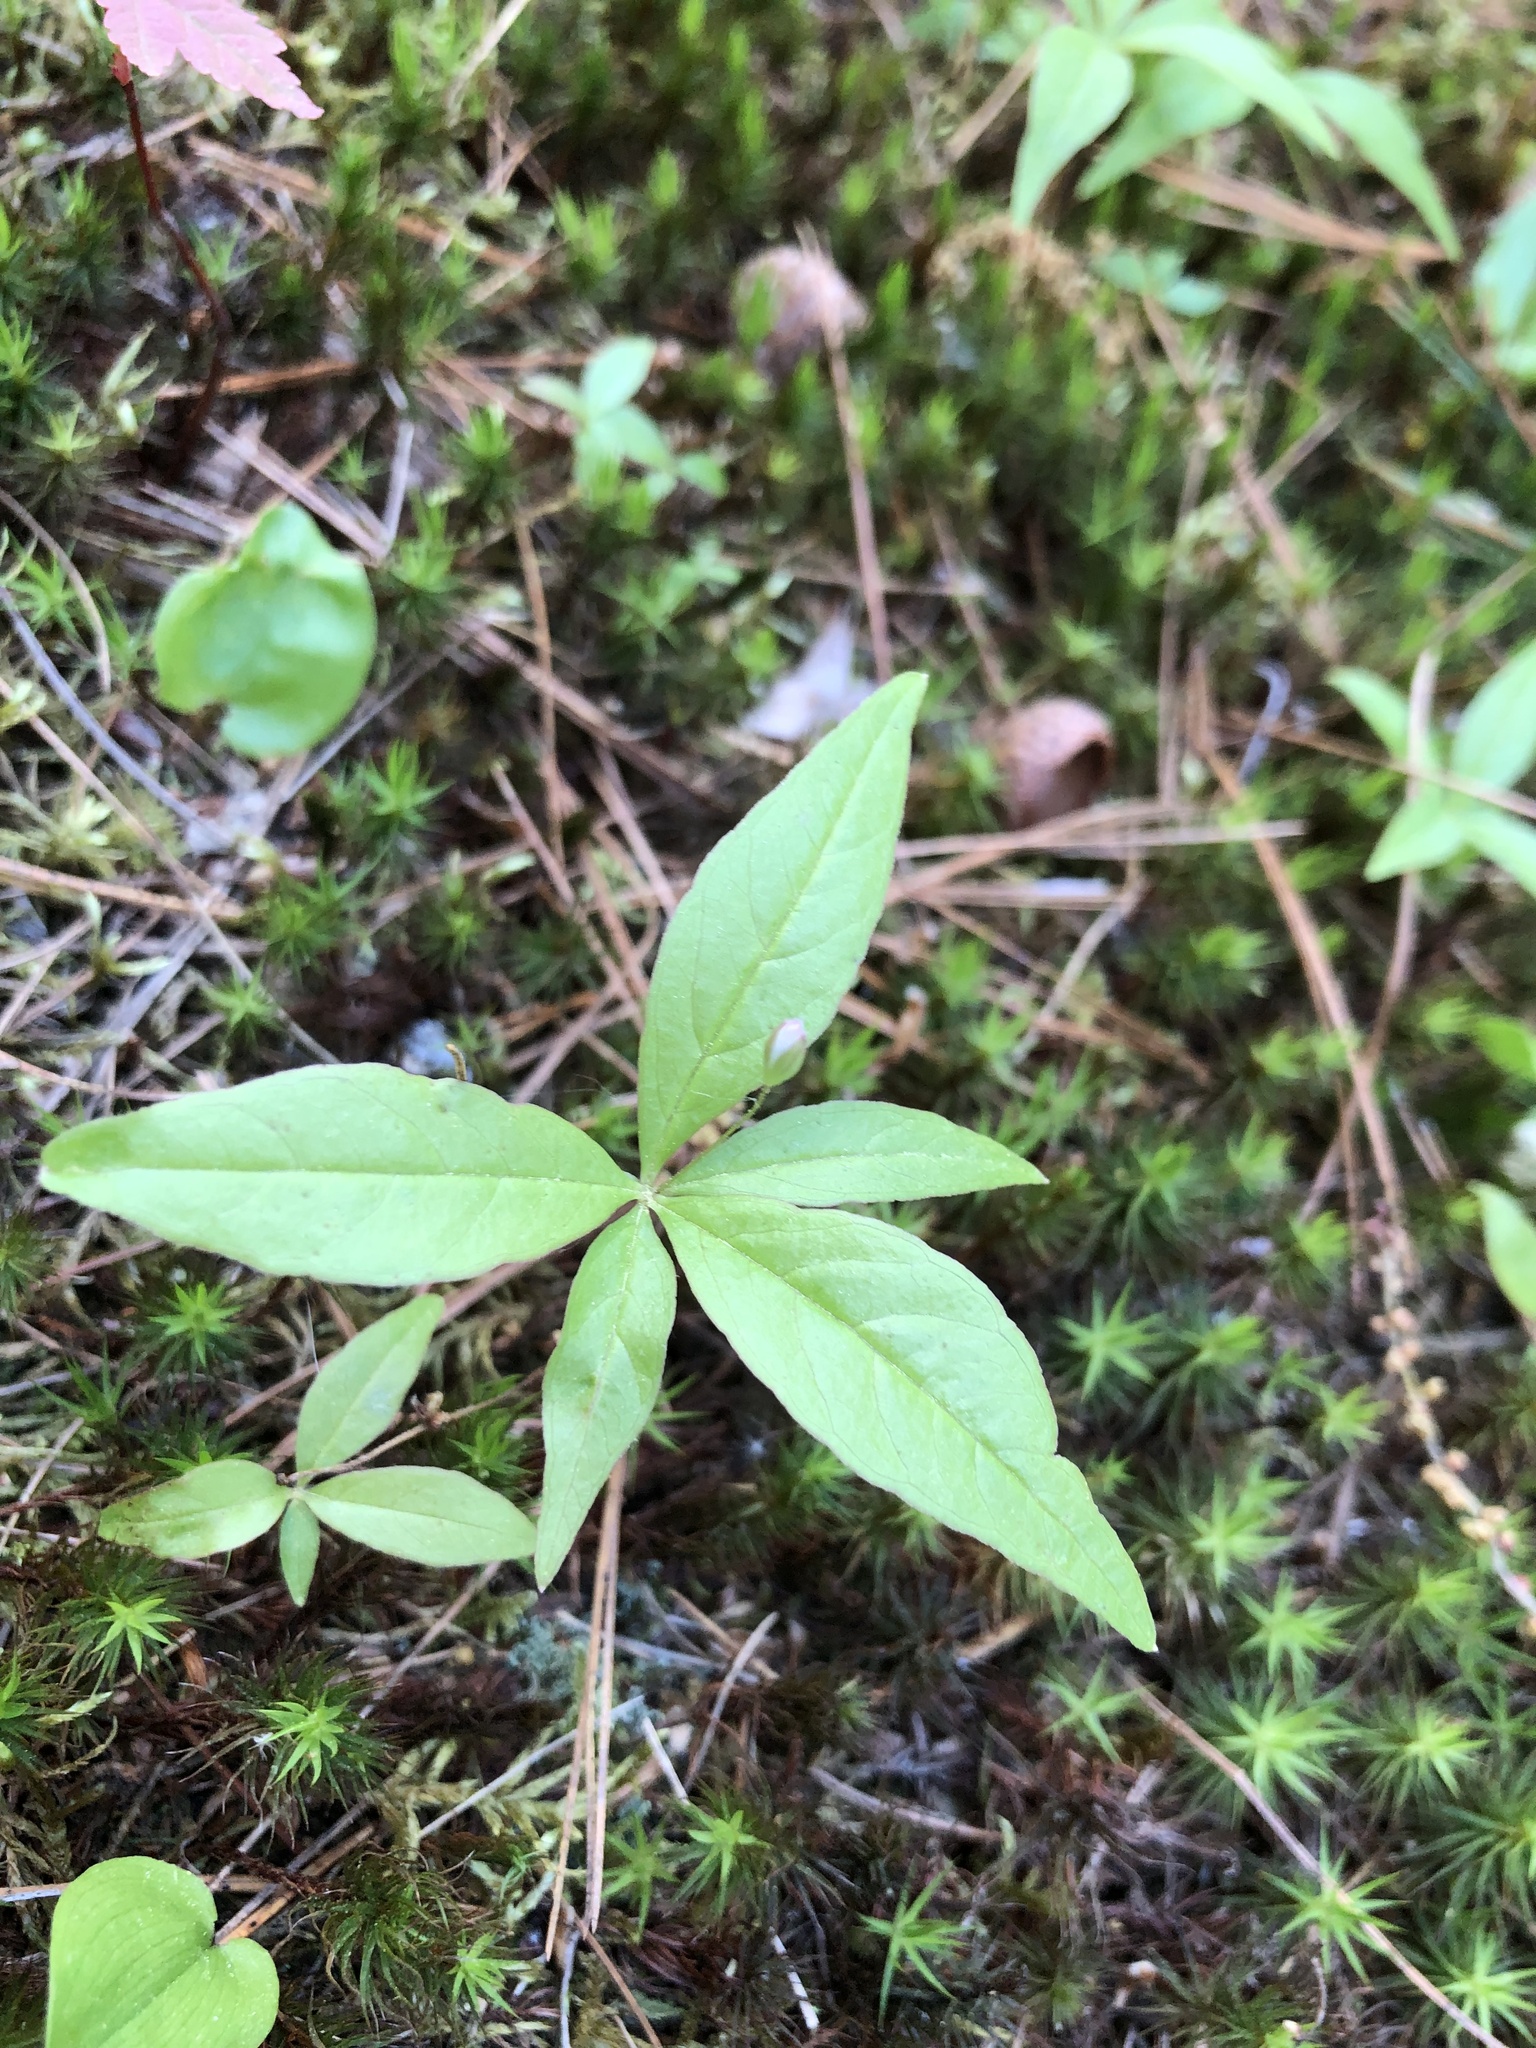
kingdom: Plantae
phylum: Tracheophyta
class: Magnoliopsida
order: Ericales
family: Primulaceae
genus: Lysimachia
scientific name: Lysimachia borealis
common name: American starflower
